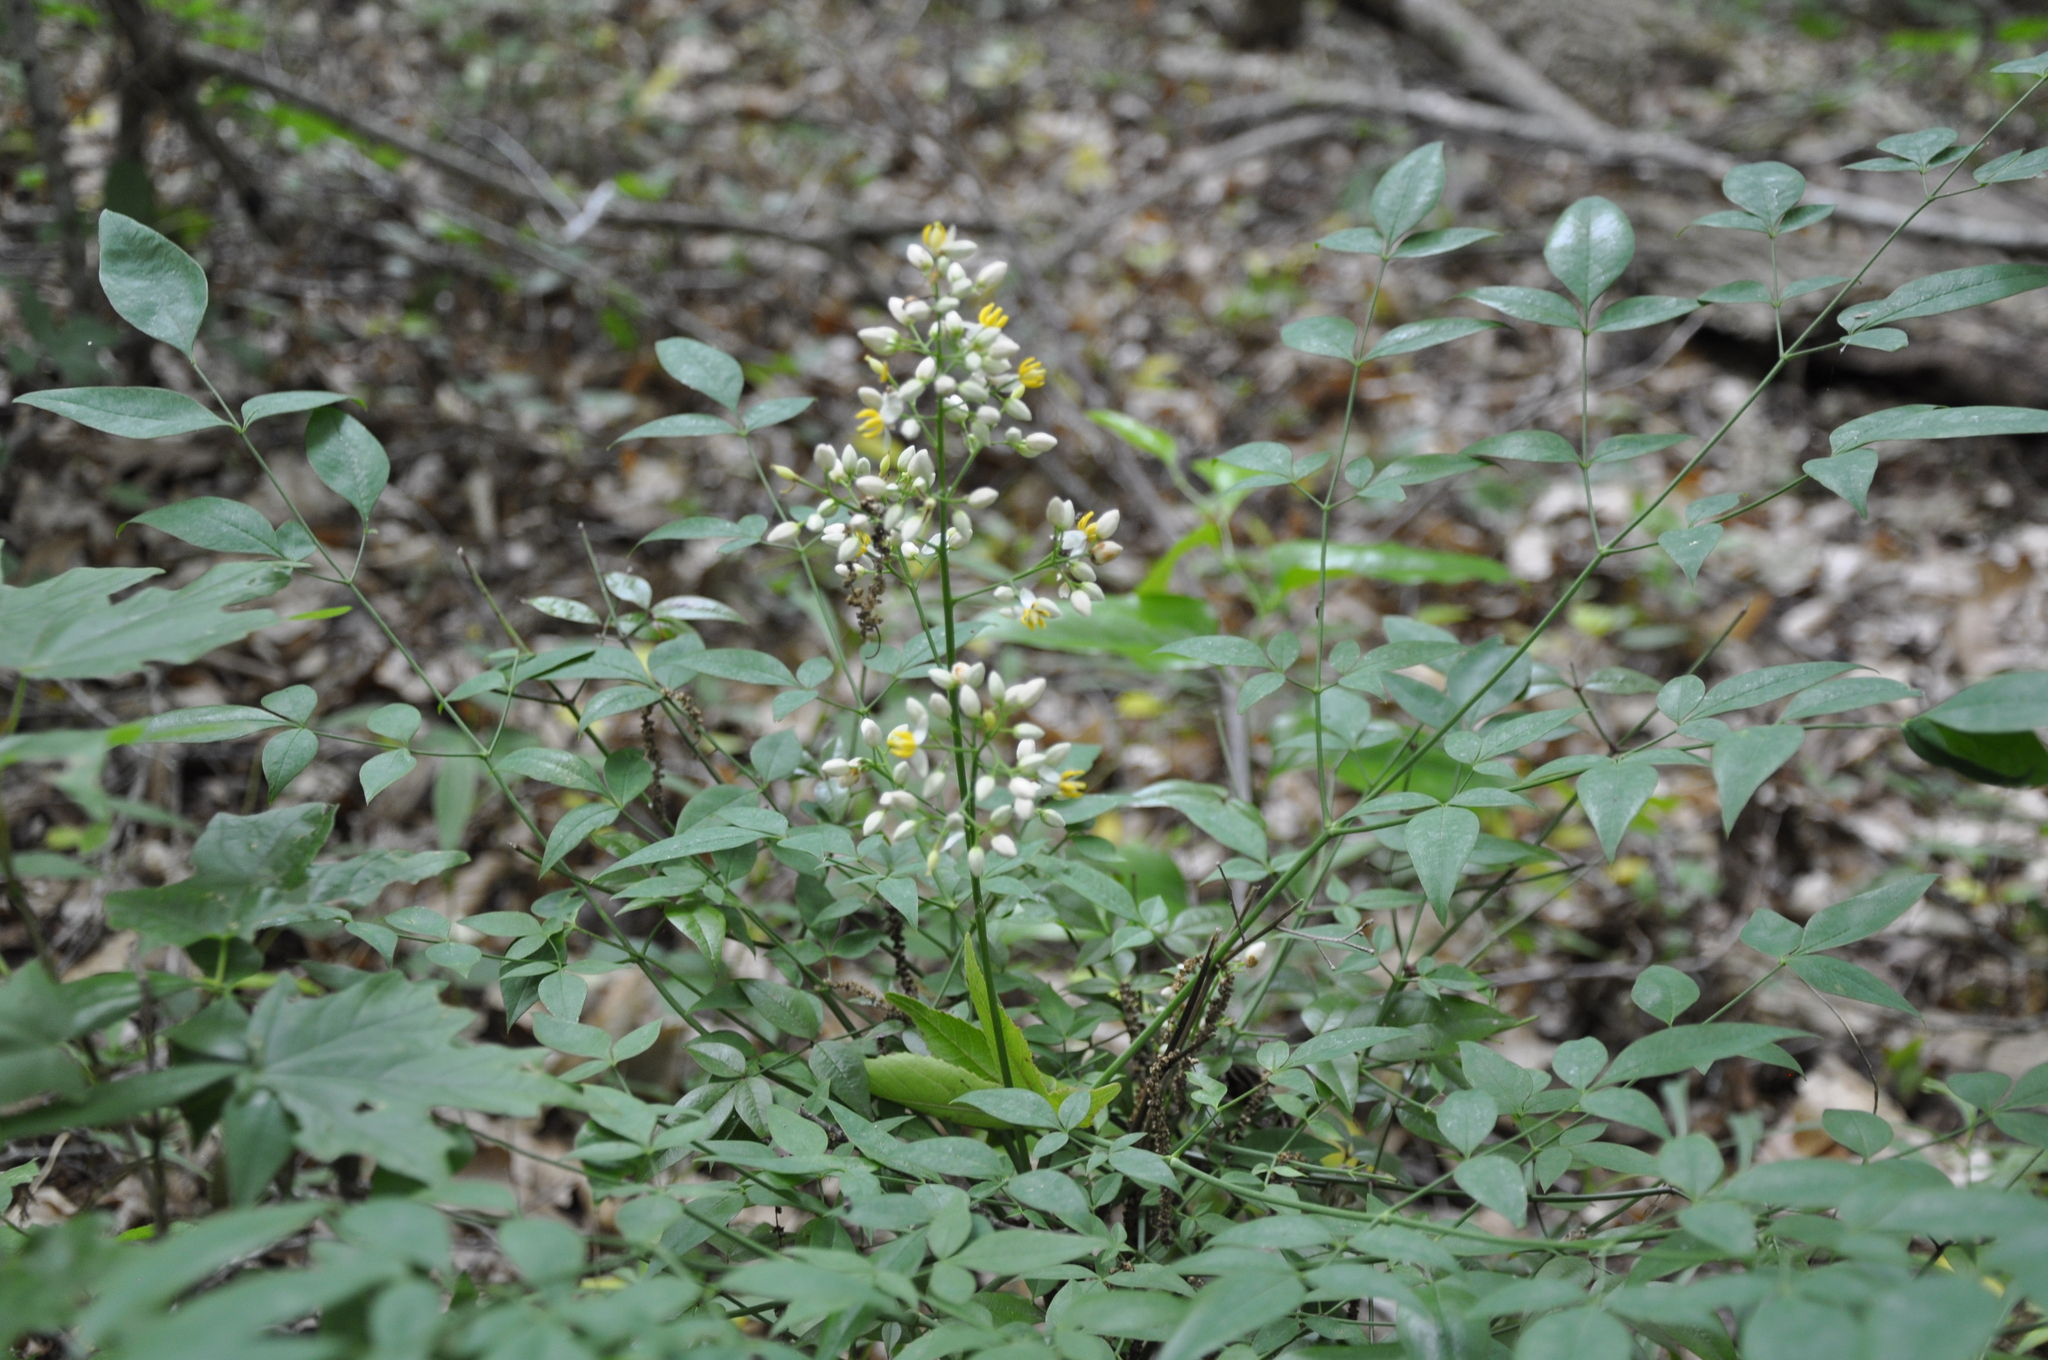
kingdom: Plantae
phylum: Tracheophyta
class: Magnoliopsida
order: Ranunculales
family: Berberidaceae
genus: Nandina
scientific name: Nandina domestica
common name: Sacred bamboo
